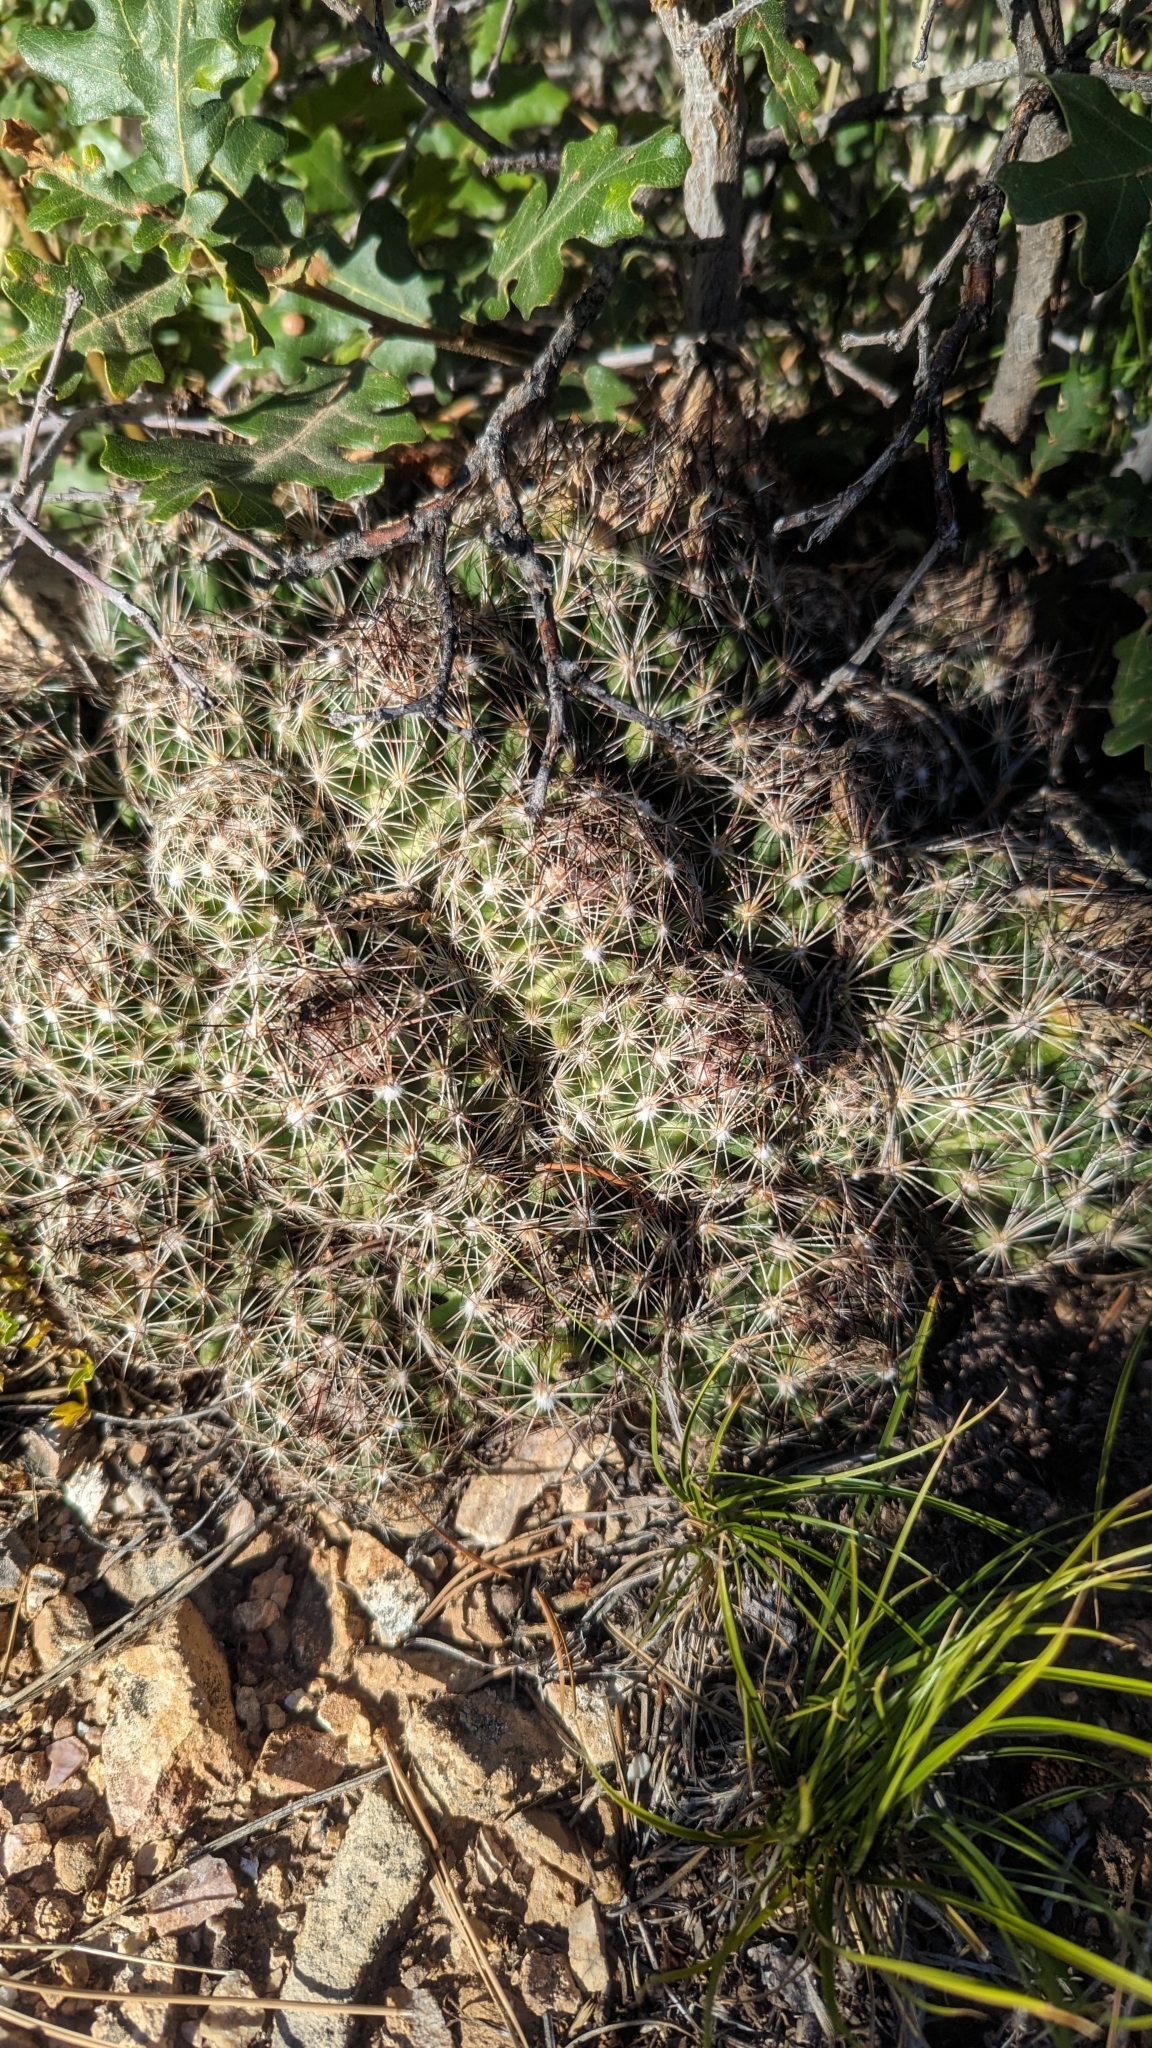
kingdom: Plantae
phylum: Tracheophyta
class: Magnoliopsida
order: Caryophyllales
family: Cactaceae
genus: Pelecyphora
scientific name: Pelecyphora vivipara
